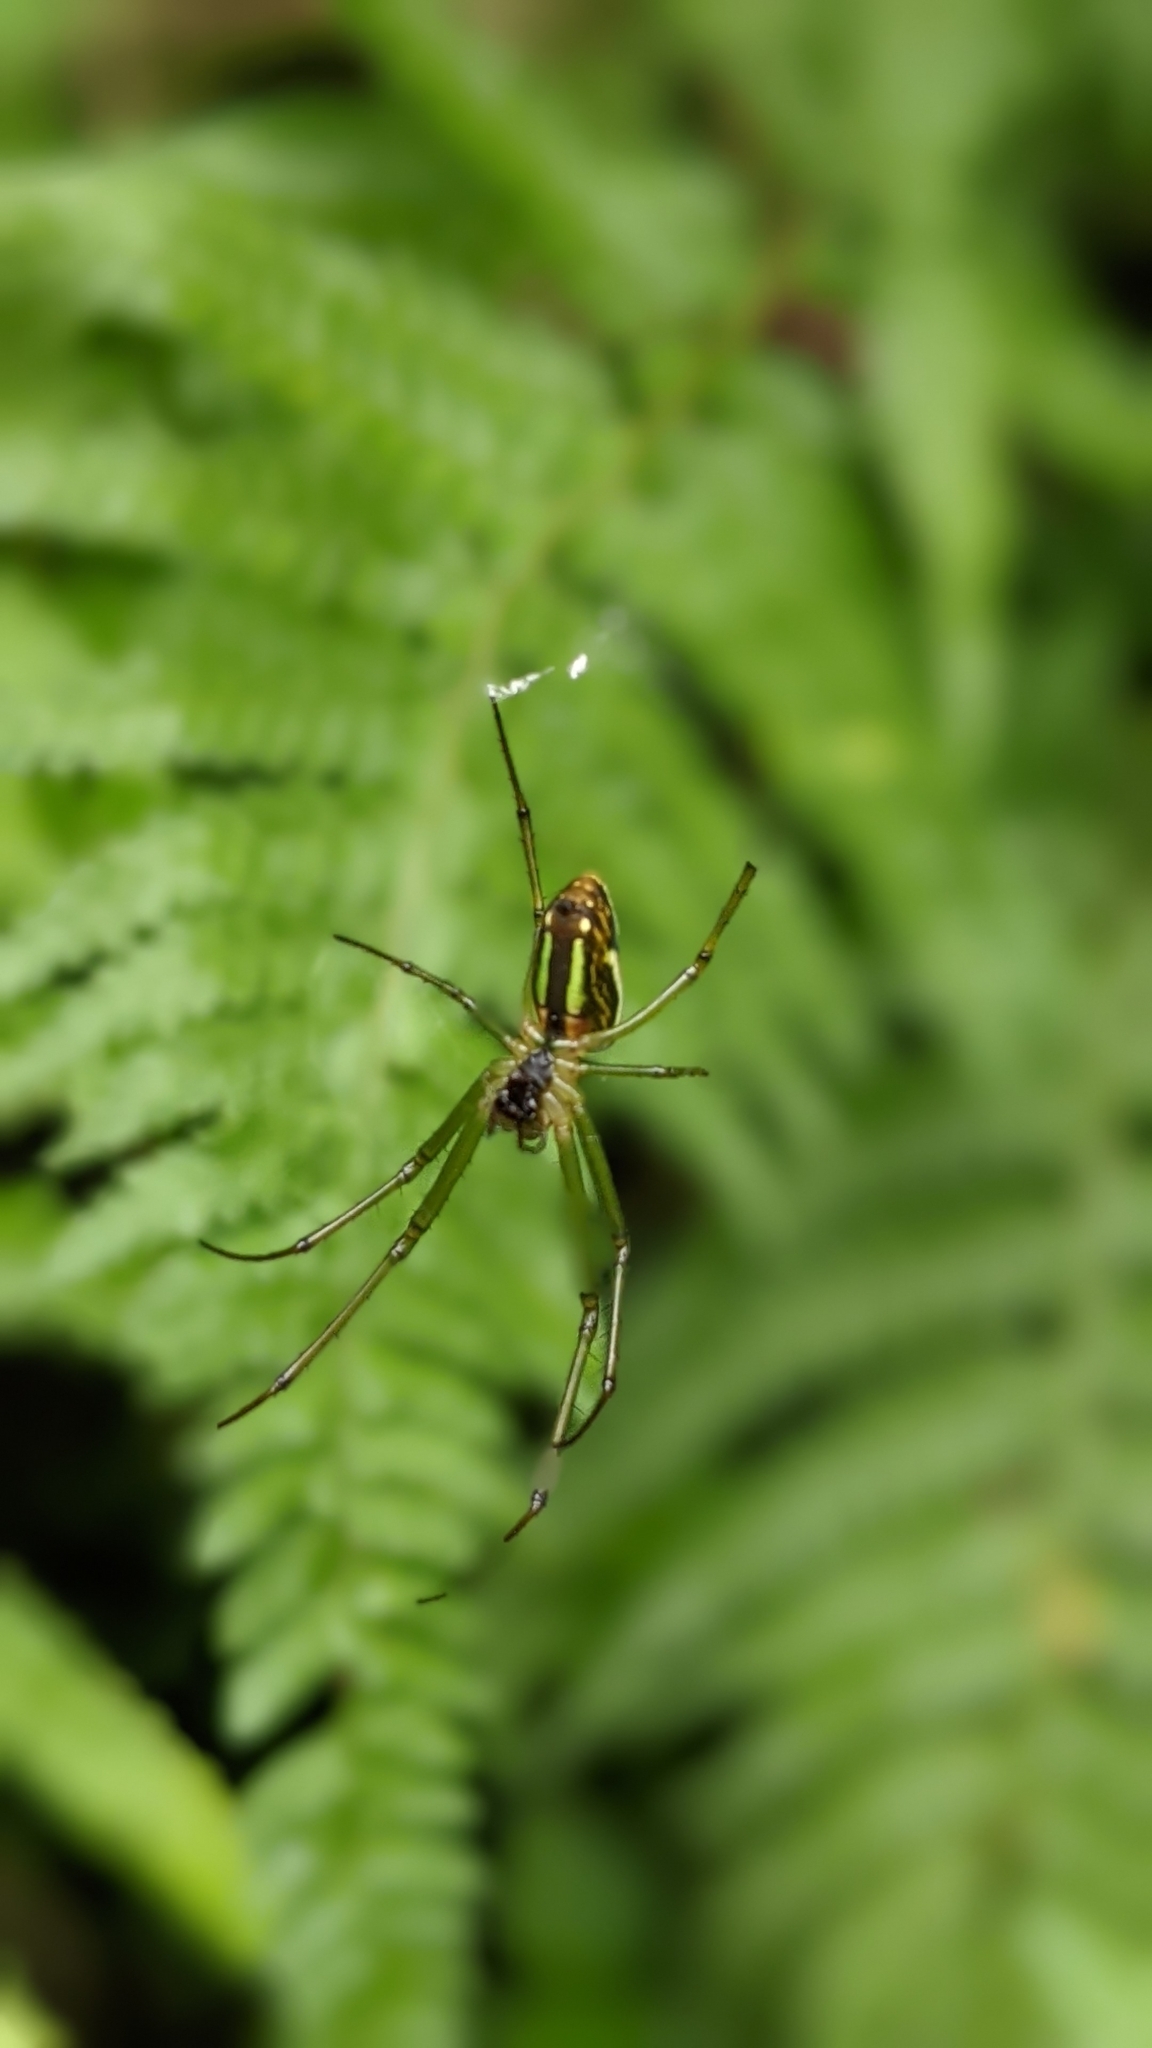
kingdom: Animalia
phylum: Arthropoda
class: Arachnida
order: Araneae
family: Tetragnathidae
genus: Leucauge
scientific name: Leucauge celebesiana
